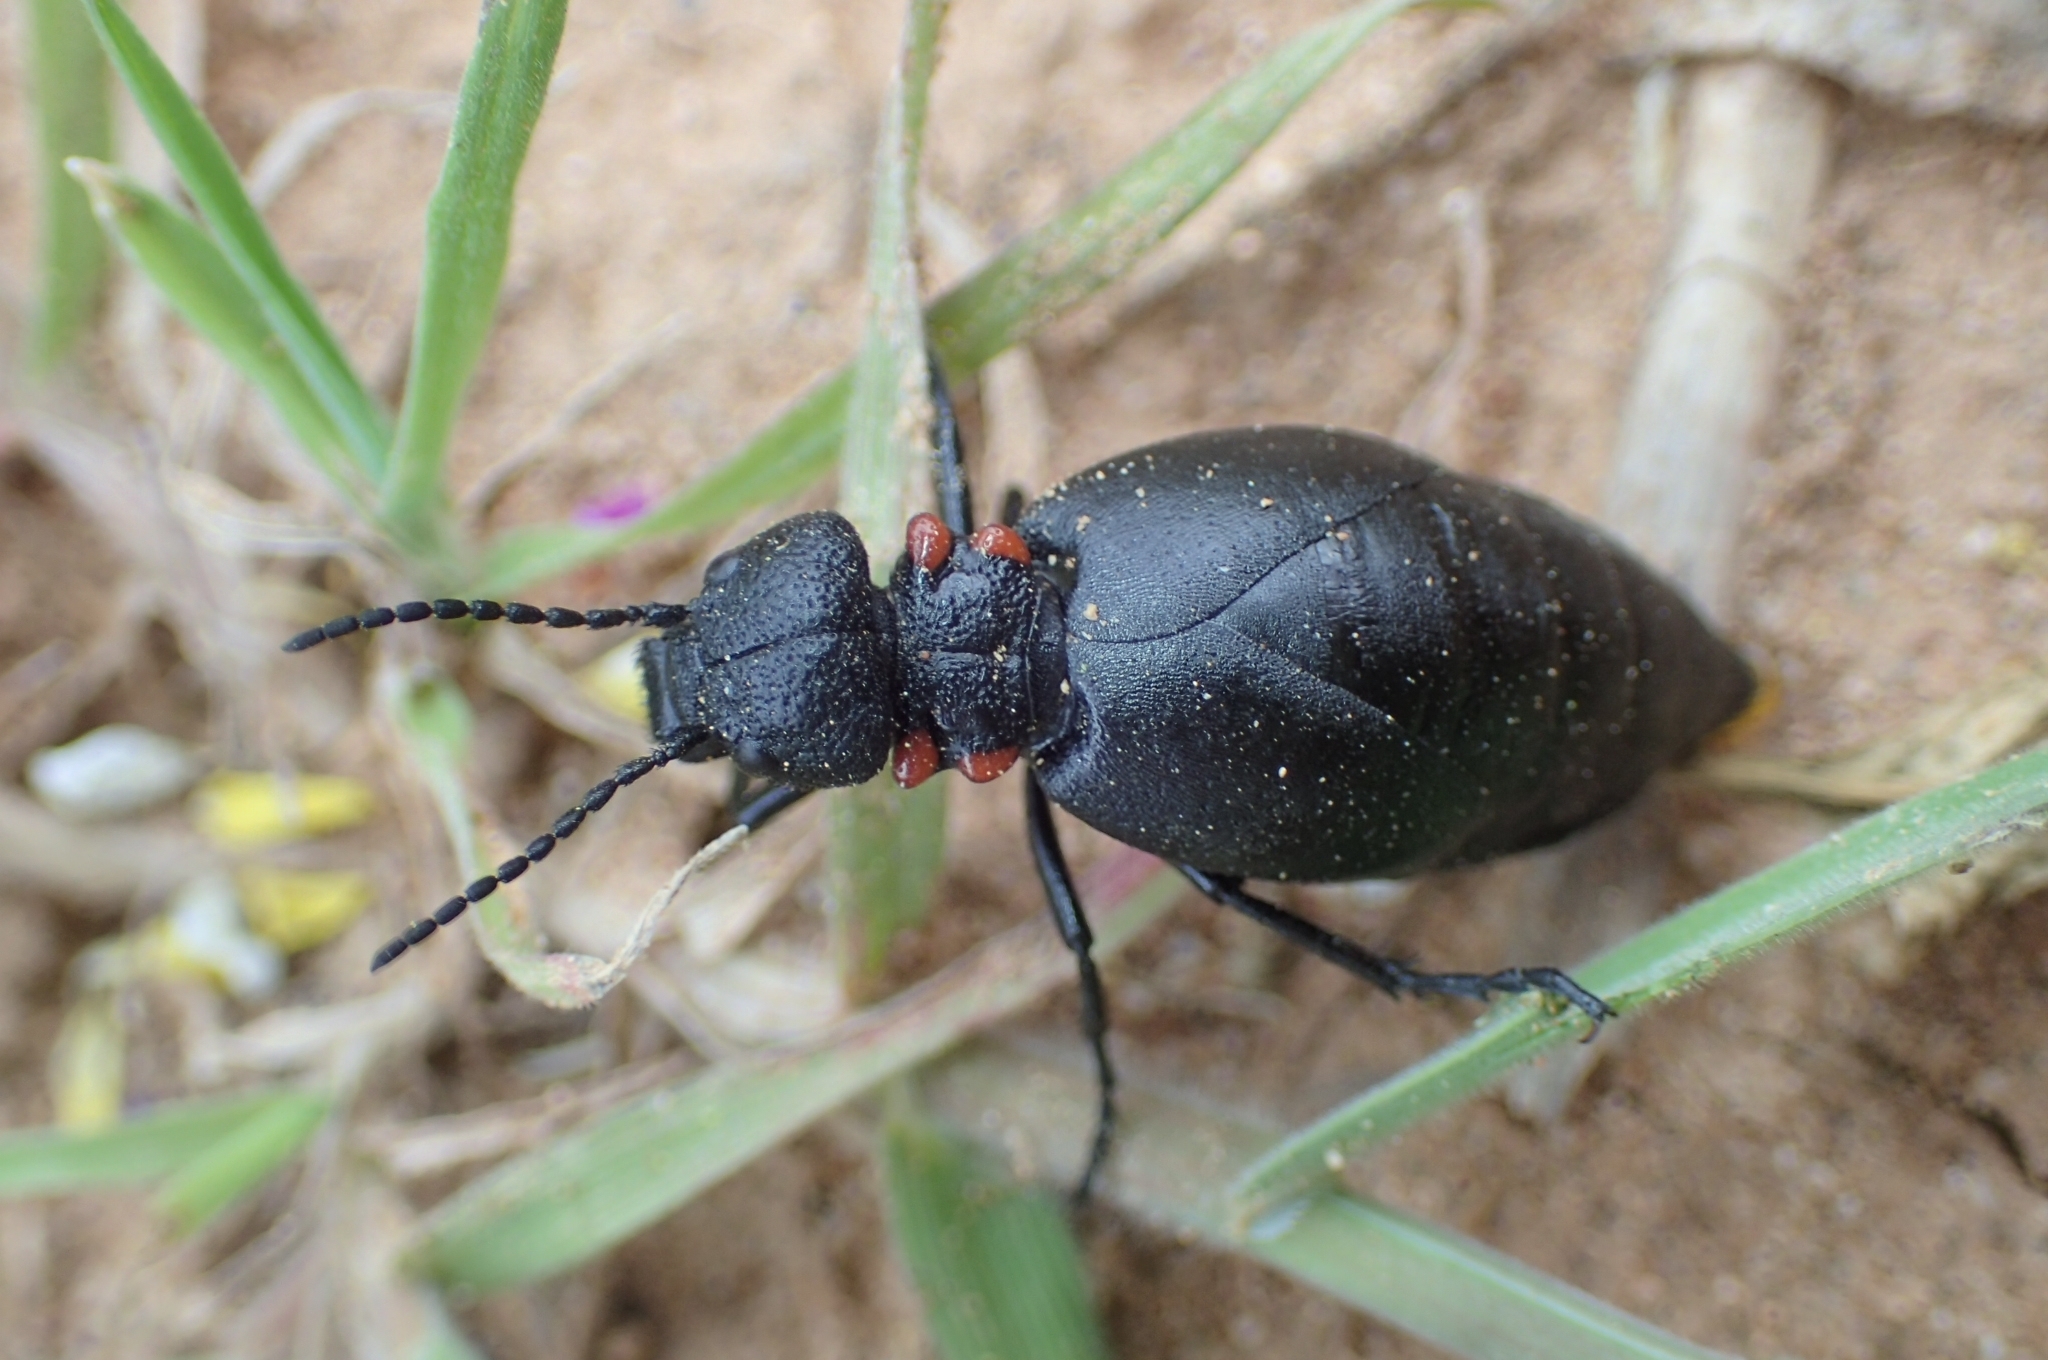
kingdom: Animalia
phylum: Arthropoda
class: Insecta
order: Coleoptera
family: Meloidae
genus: Physomeloe
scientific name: Physomeloe corallifer
